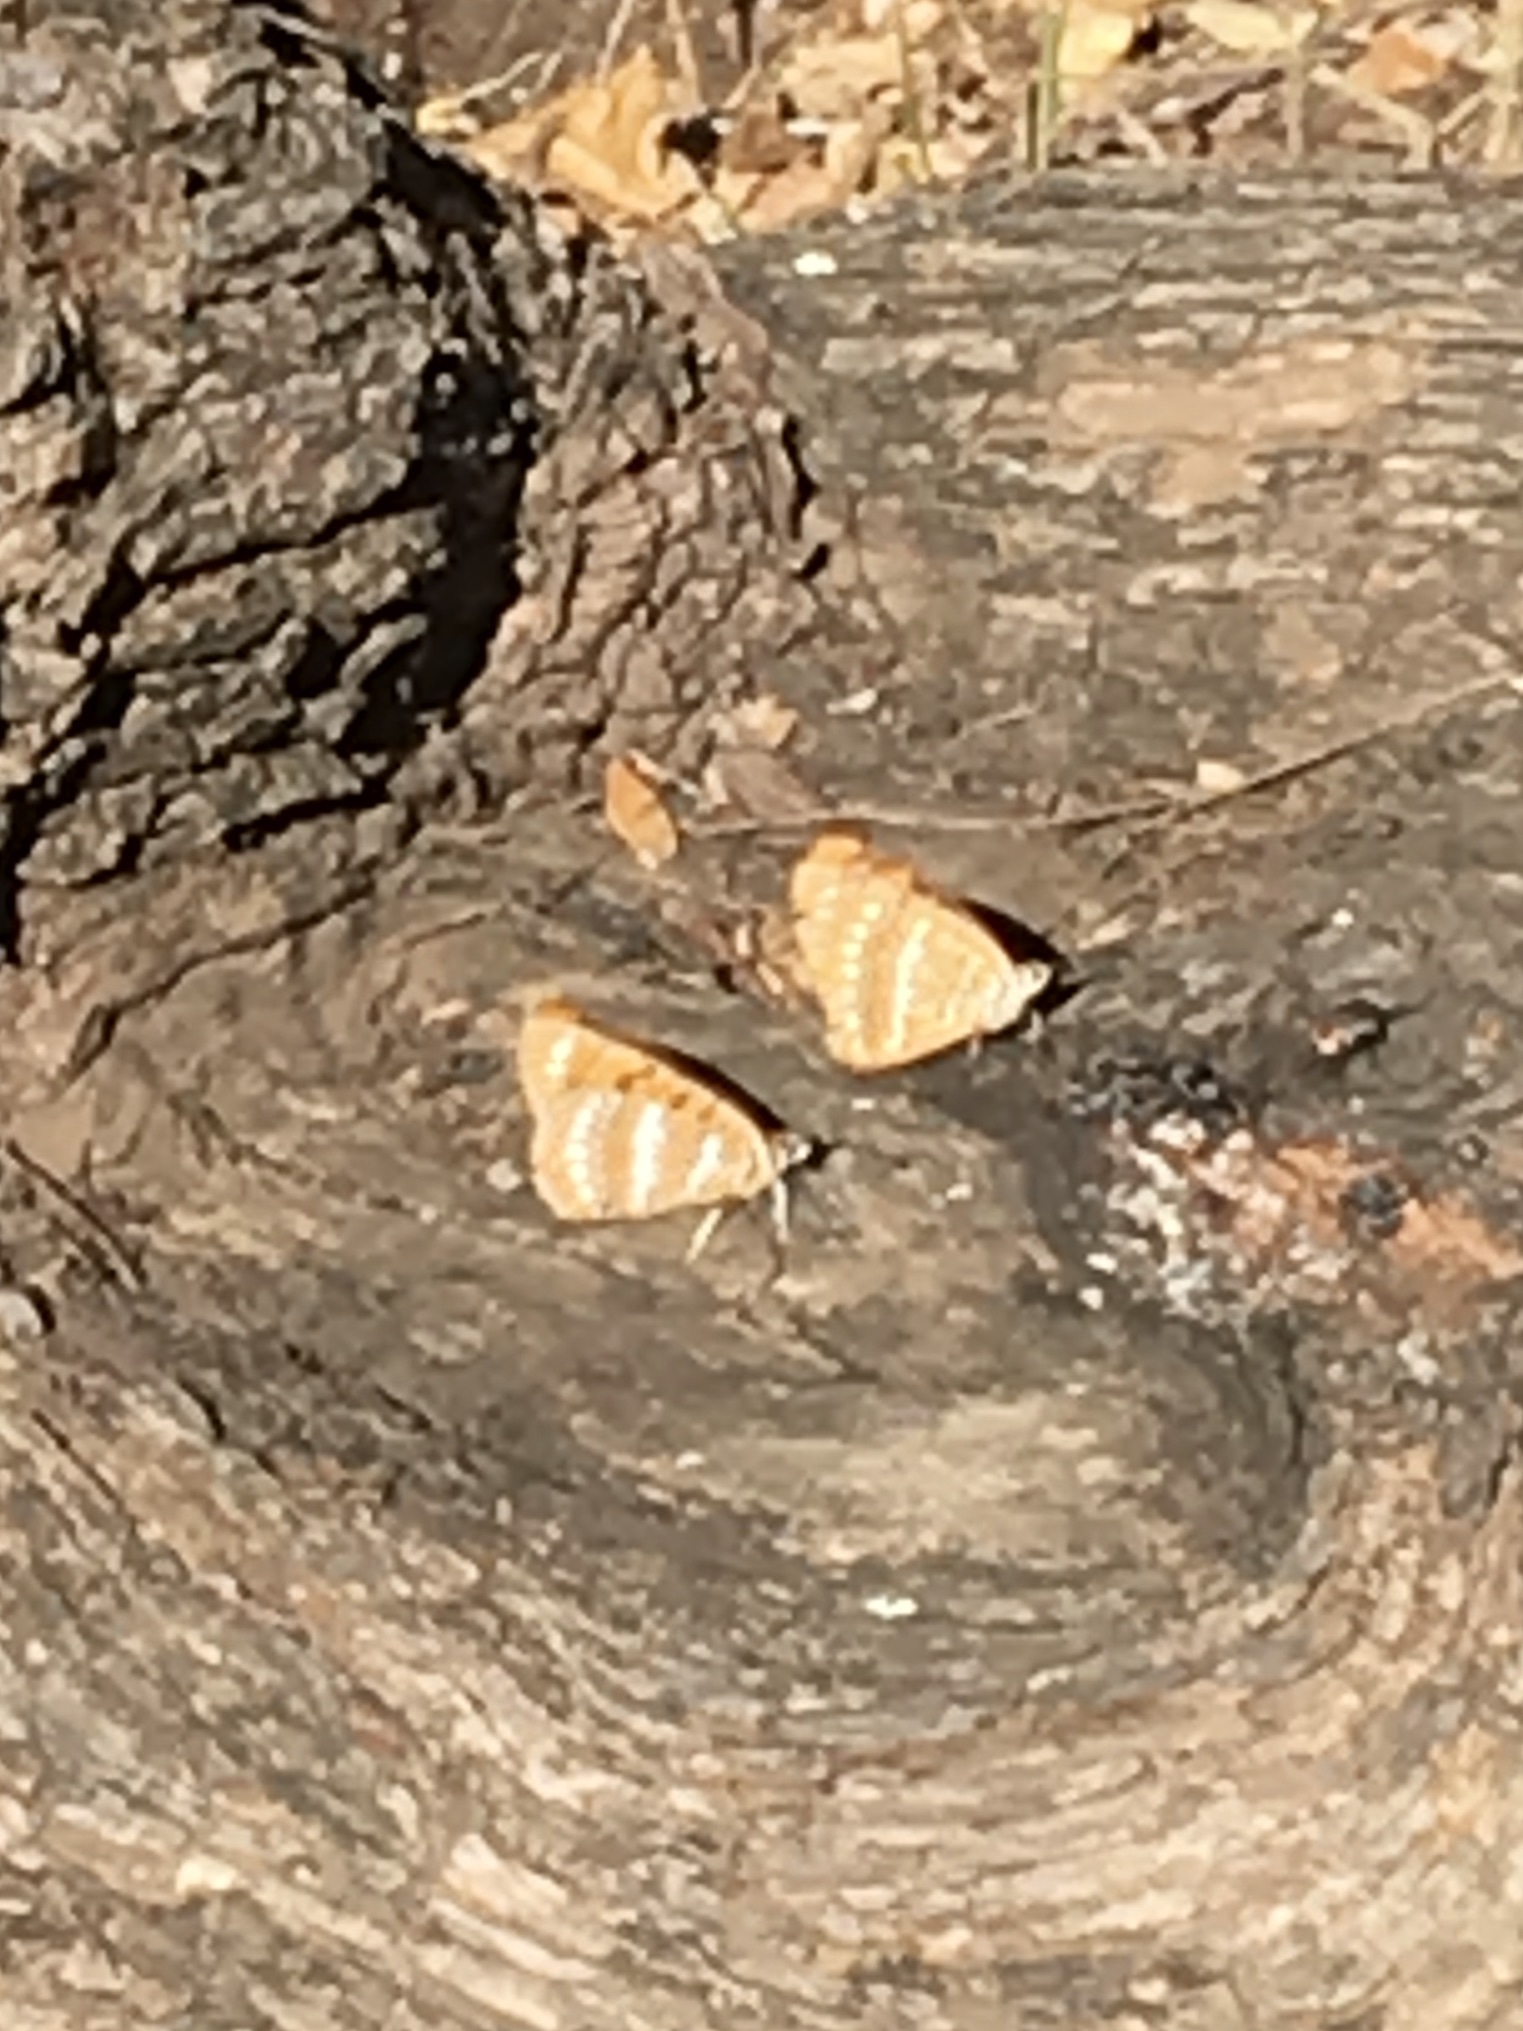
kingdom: Animalia
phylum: Arthropoda
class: Insecta
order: Lepidoptera
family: Nymphalidae
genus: Byblia
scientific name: Byblia ilithyia
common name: Spotted joker
